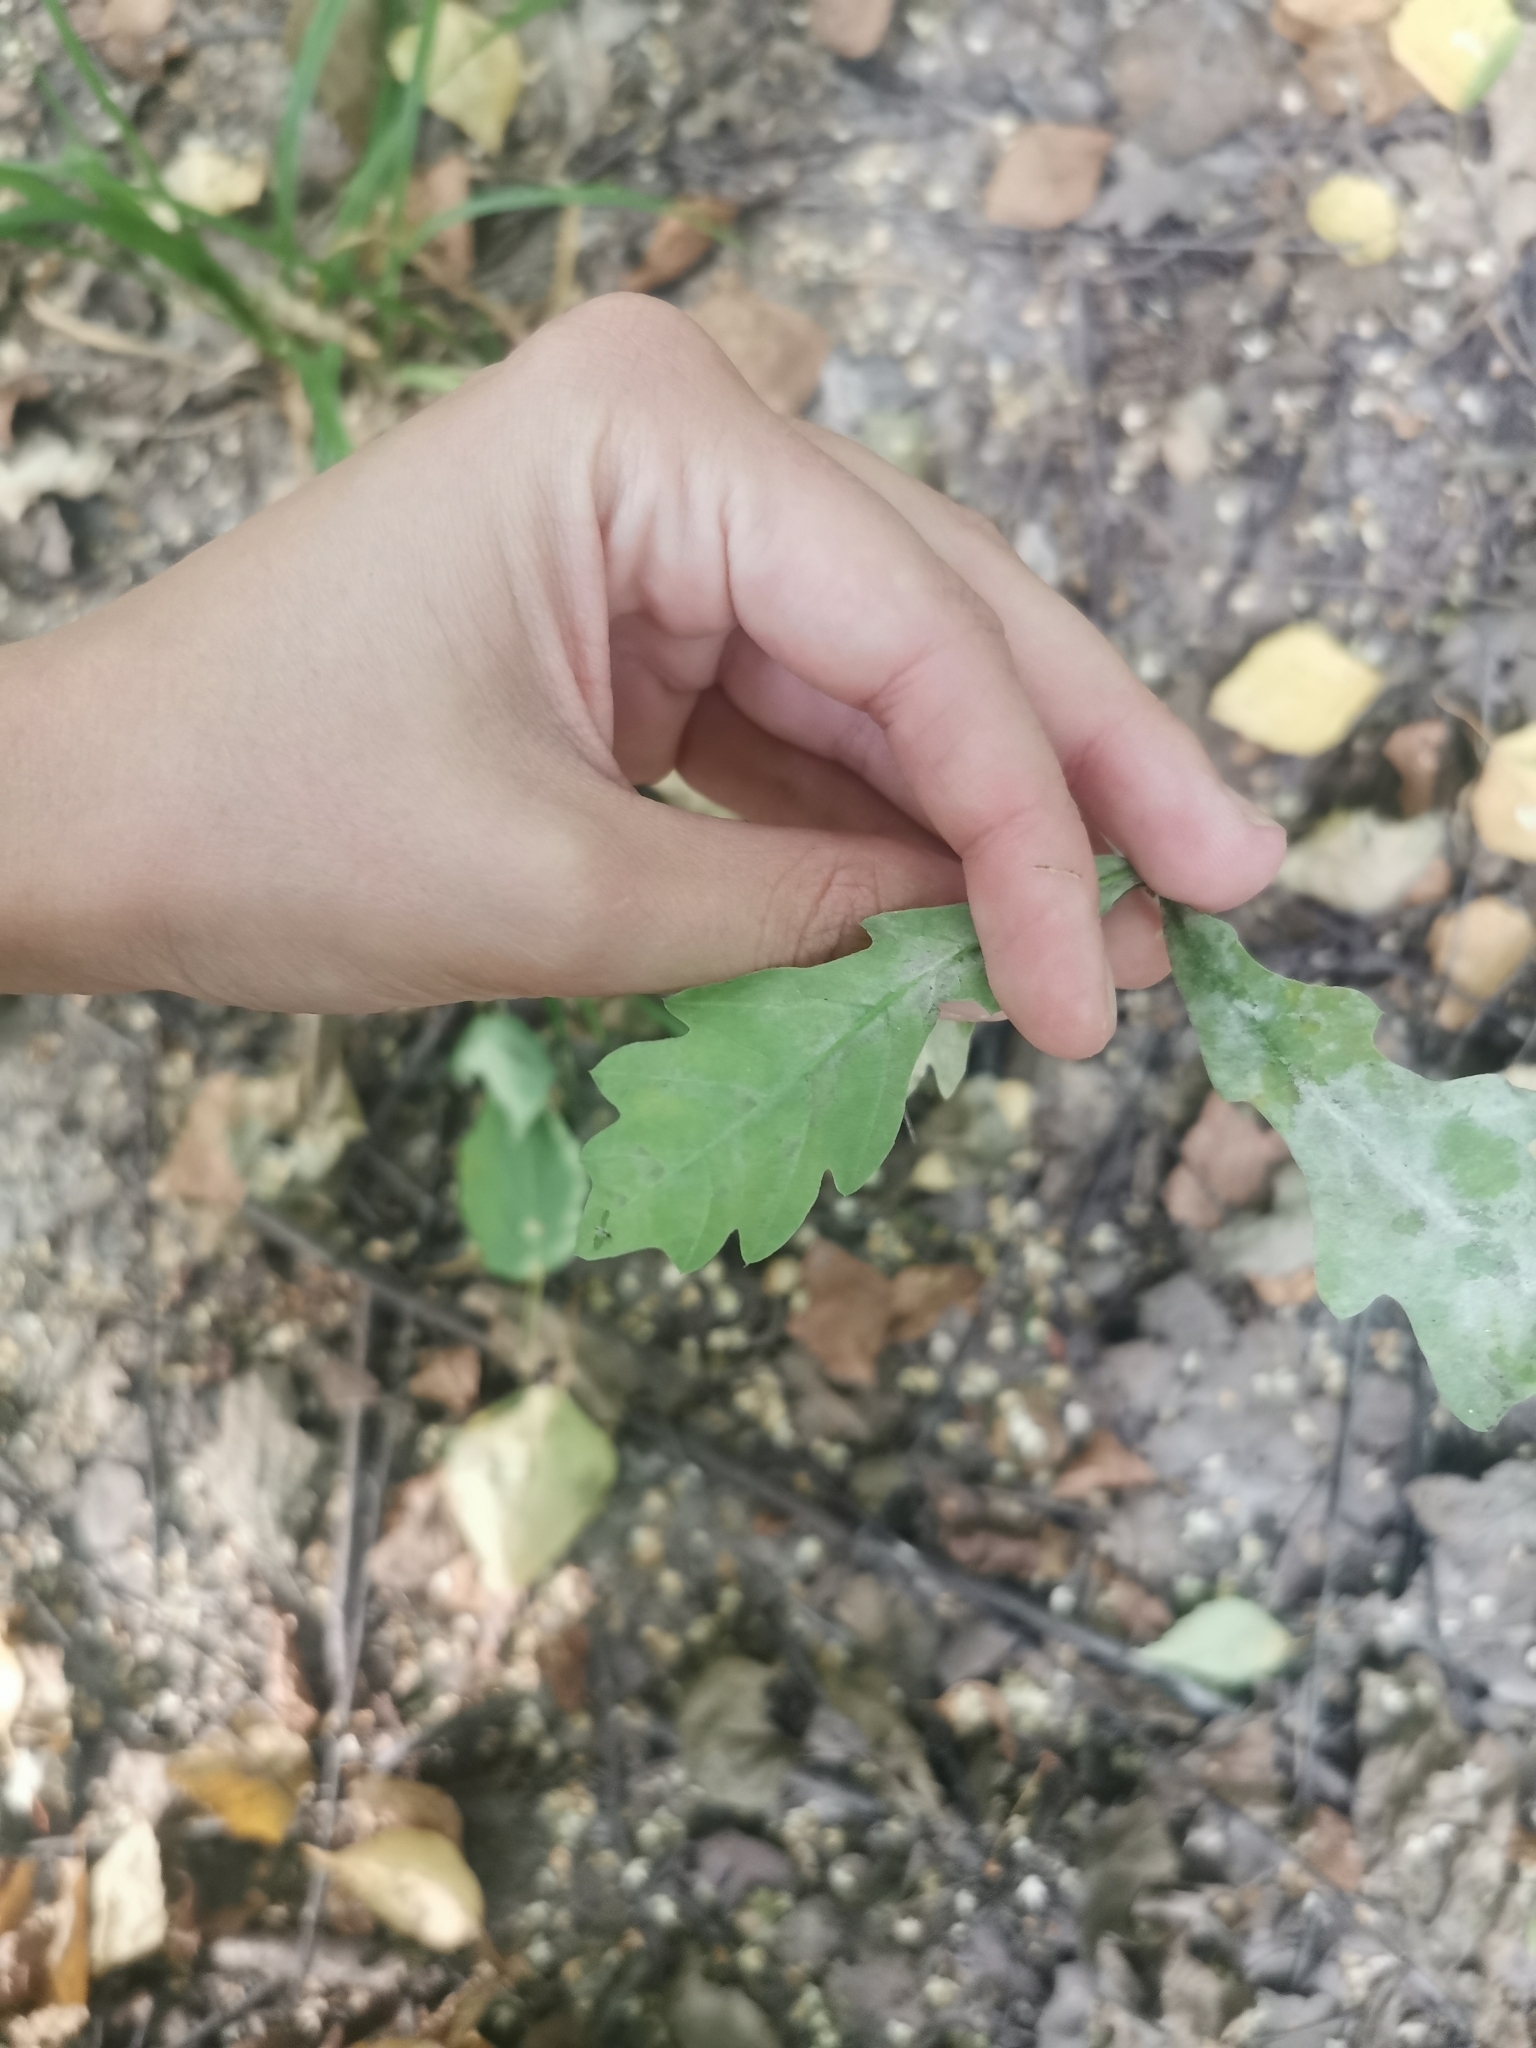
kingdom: Plantae
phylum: Tracheophyta
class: Magnoliopsida
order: Fagales
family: Fagaceae
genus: Quercus
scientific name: Quercus robur
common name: Pedunculate oak
